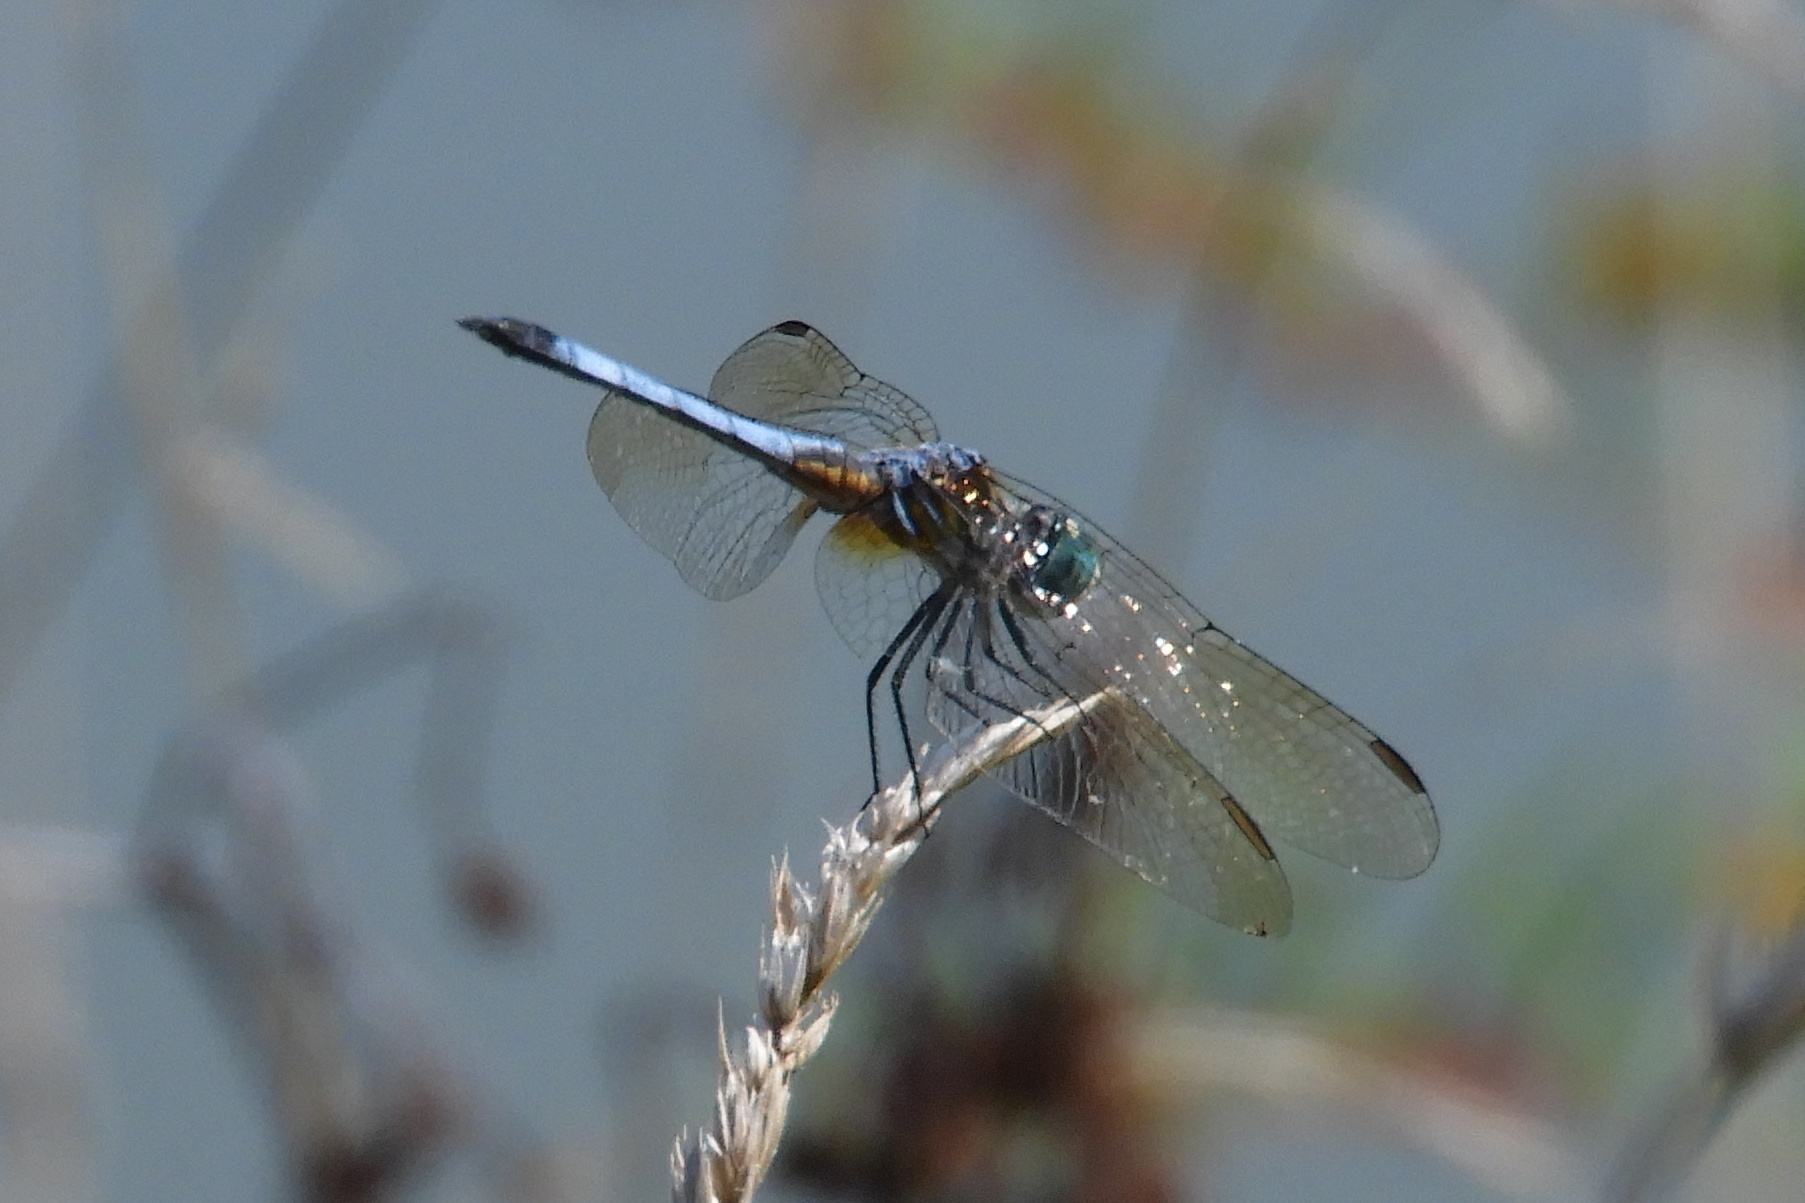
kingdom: Animalia
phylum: Arthropoda
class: Insecta
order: Odonata
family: Libellulidae
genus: Pachydiplax
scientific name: Pachydiplax longipennis
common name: Blue dasher
